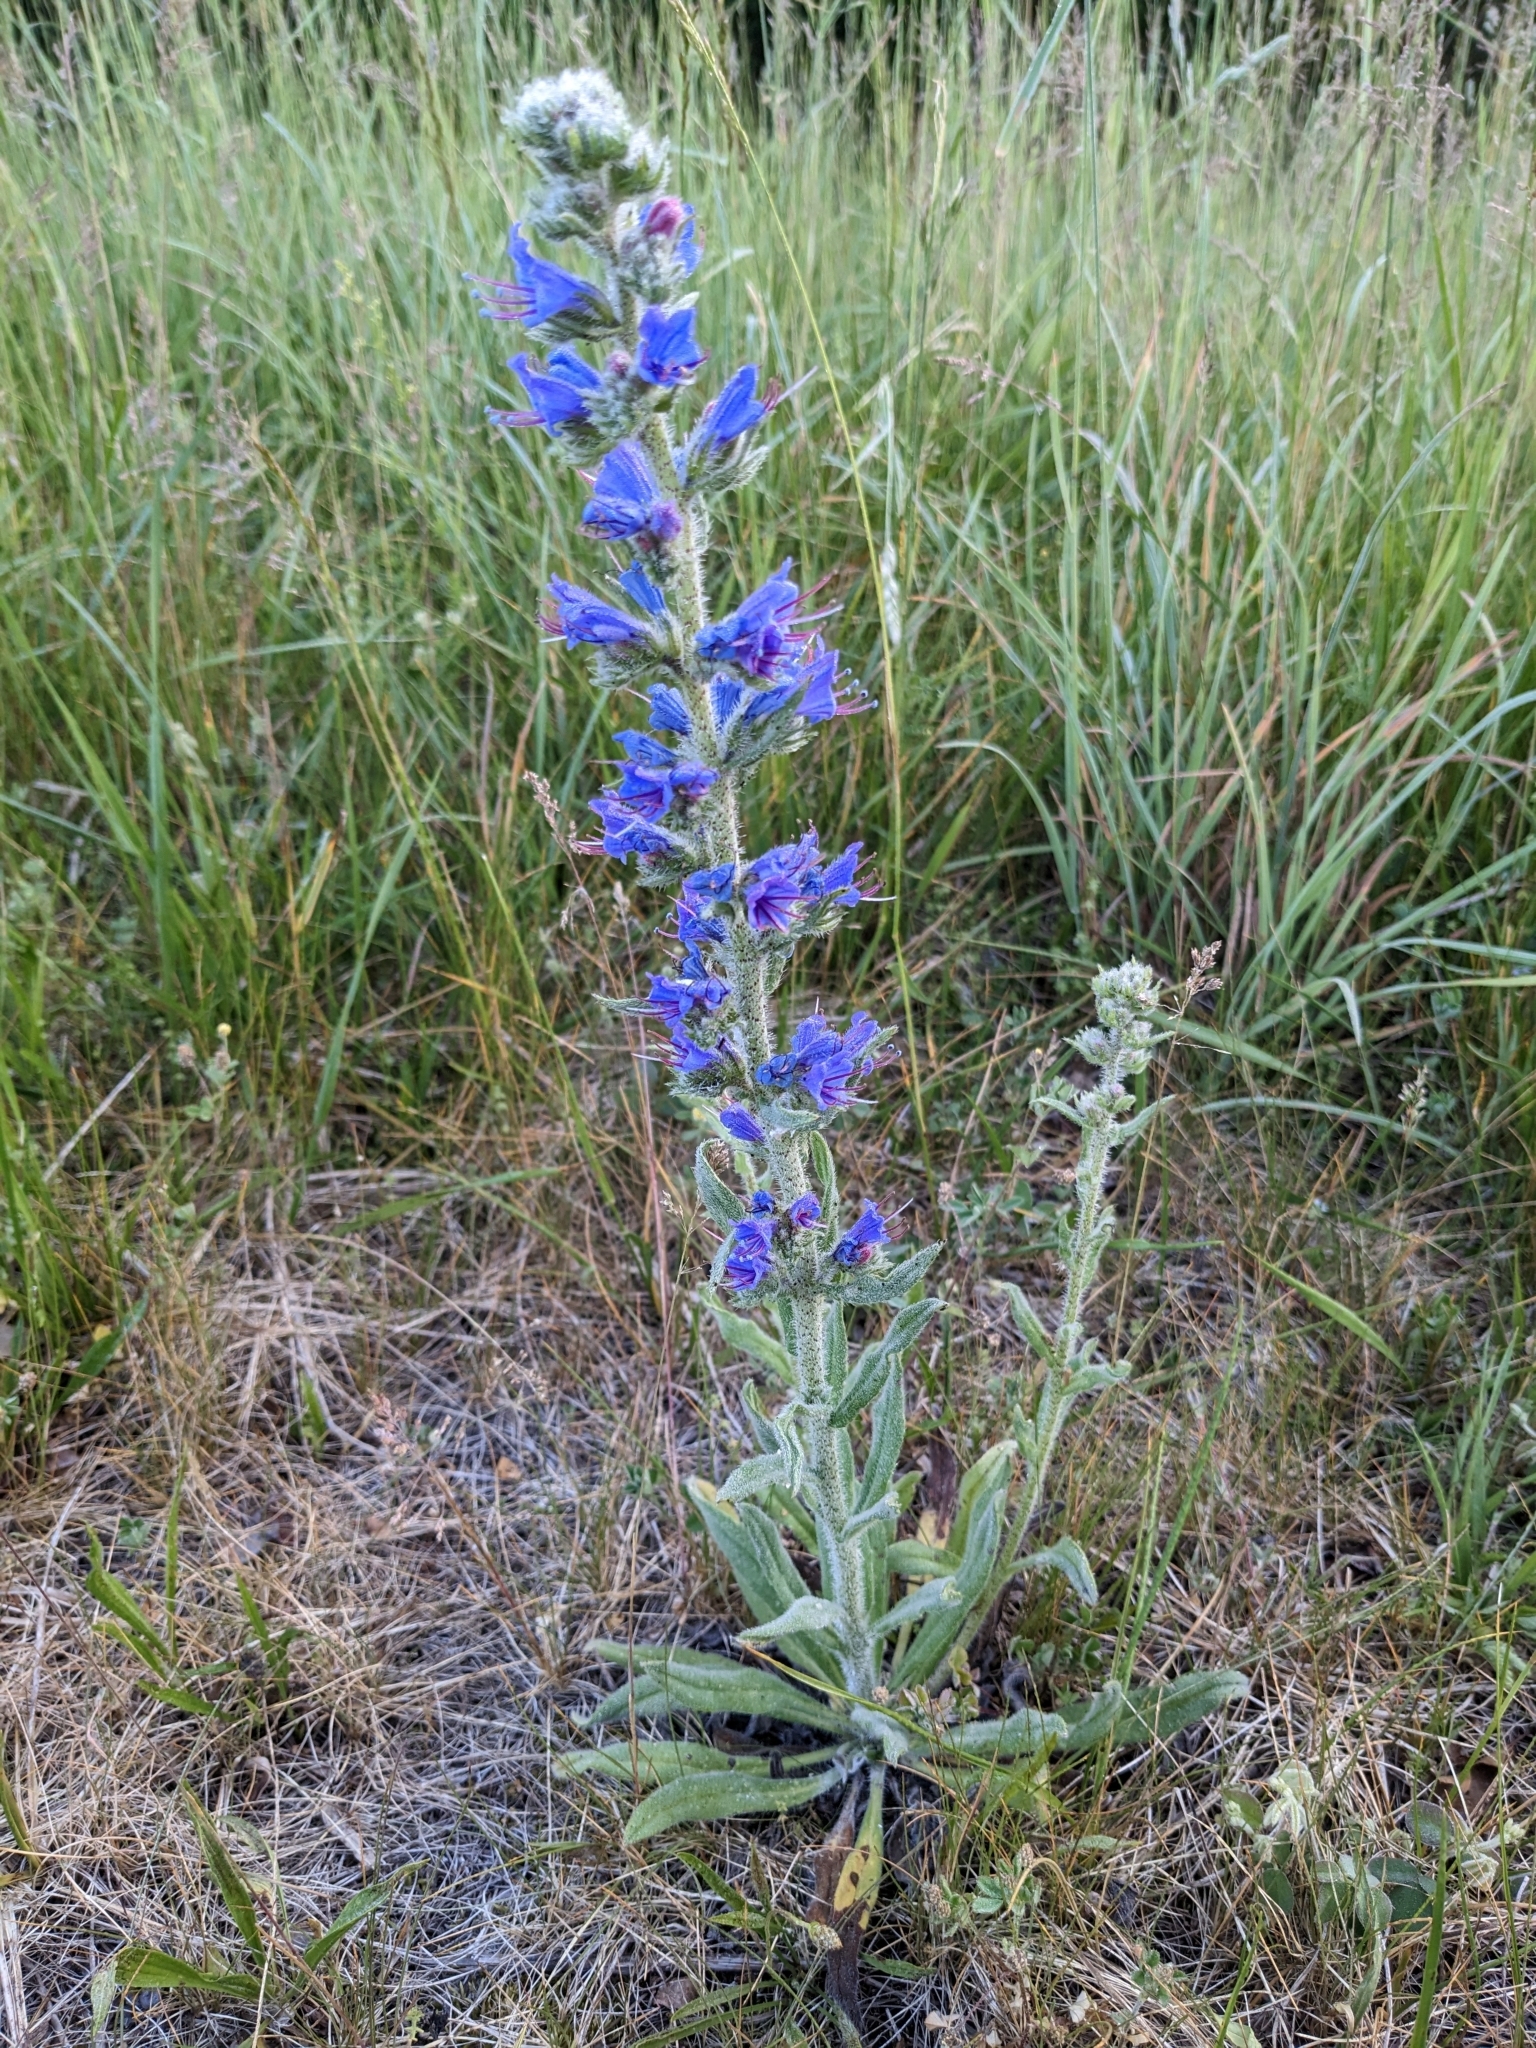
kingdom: Plantae
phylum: Tracheophyta
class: Magnoliopsida
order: Boraginales
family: Boraginaceae
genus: Echium
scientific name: Echium vulgare
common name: Common viper's bugloss
